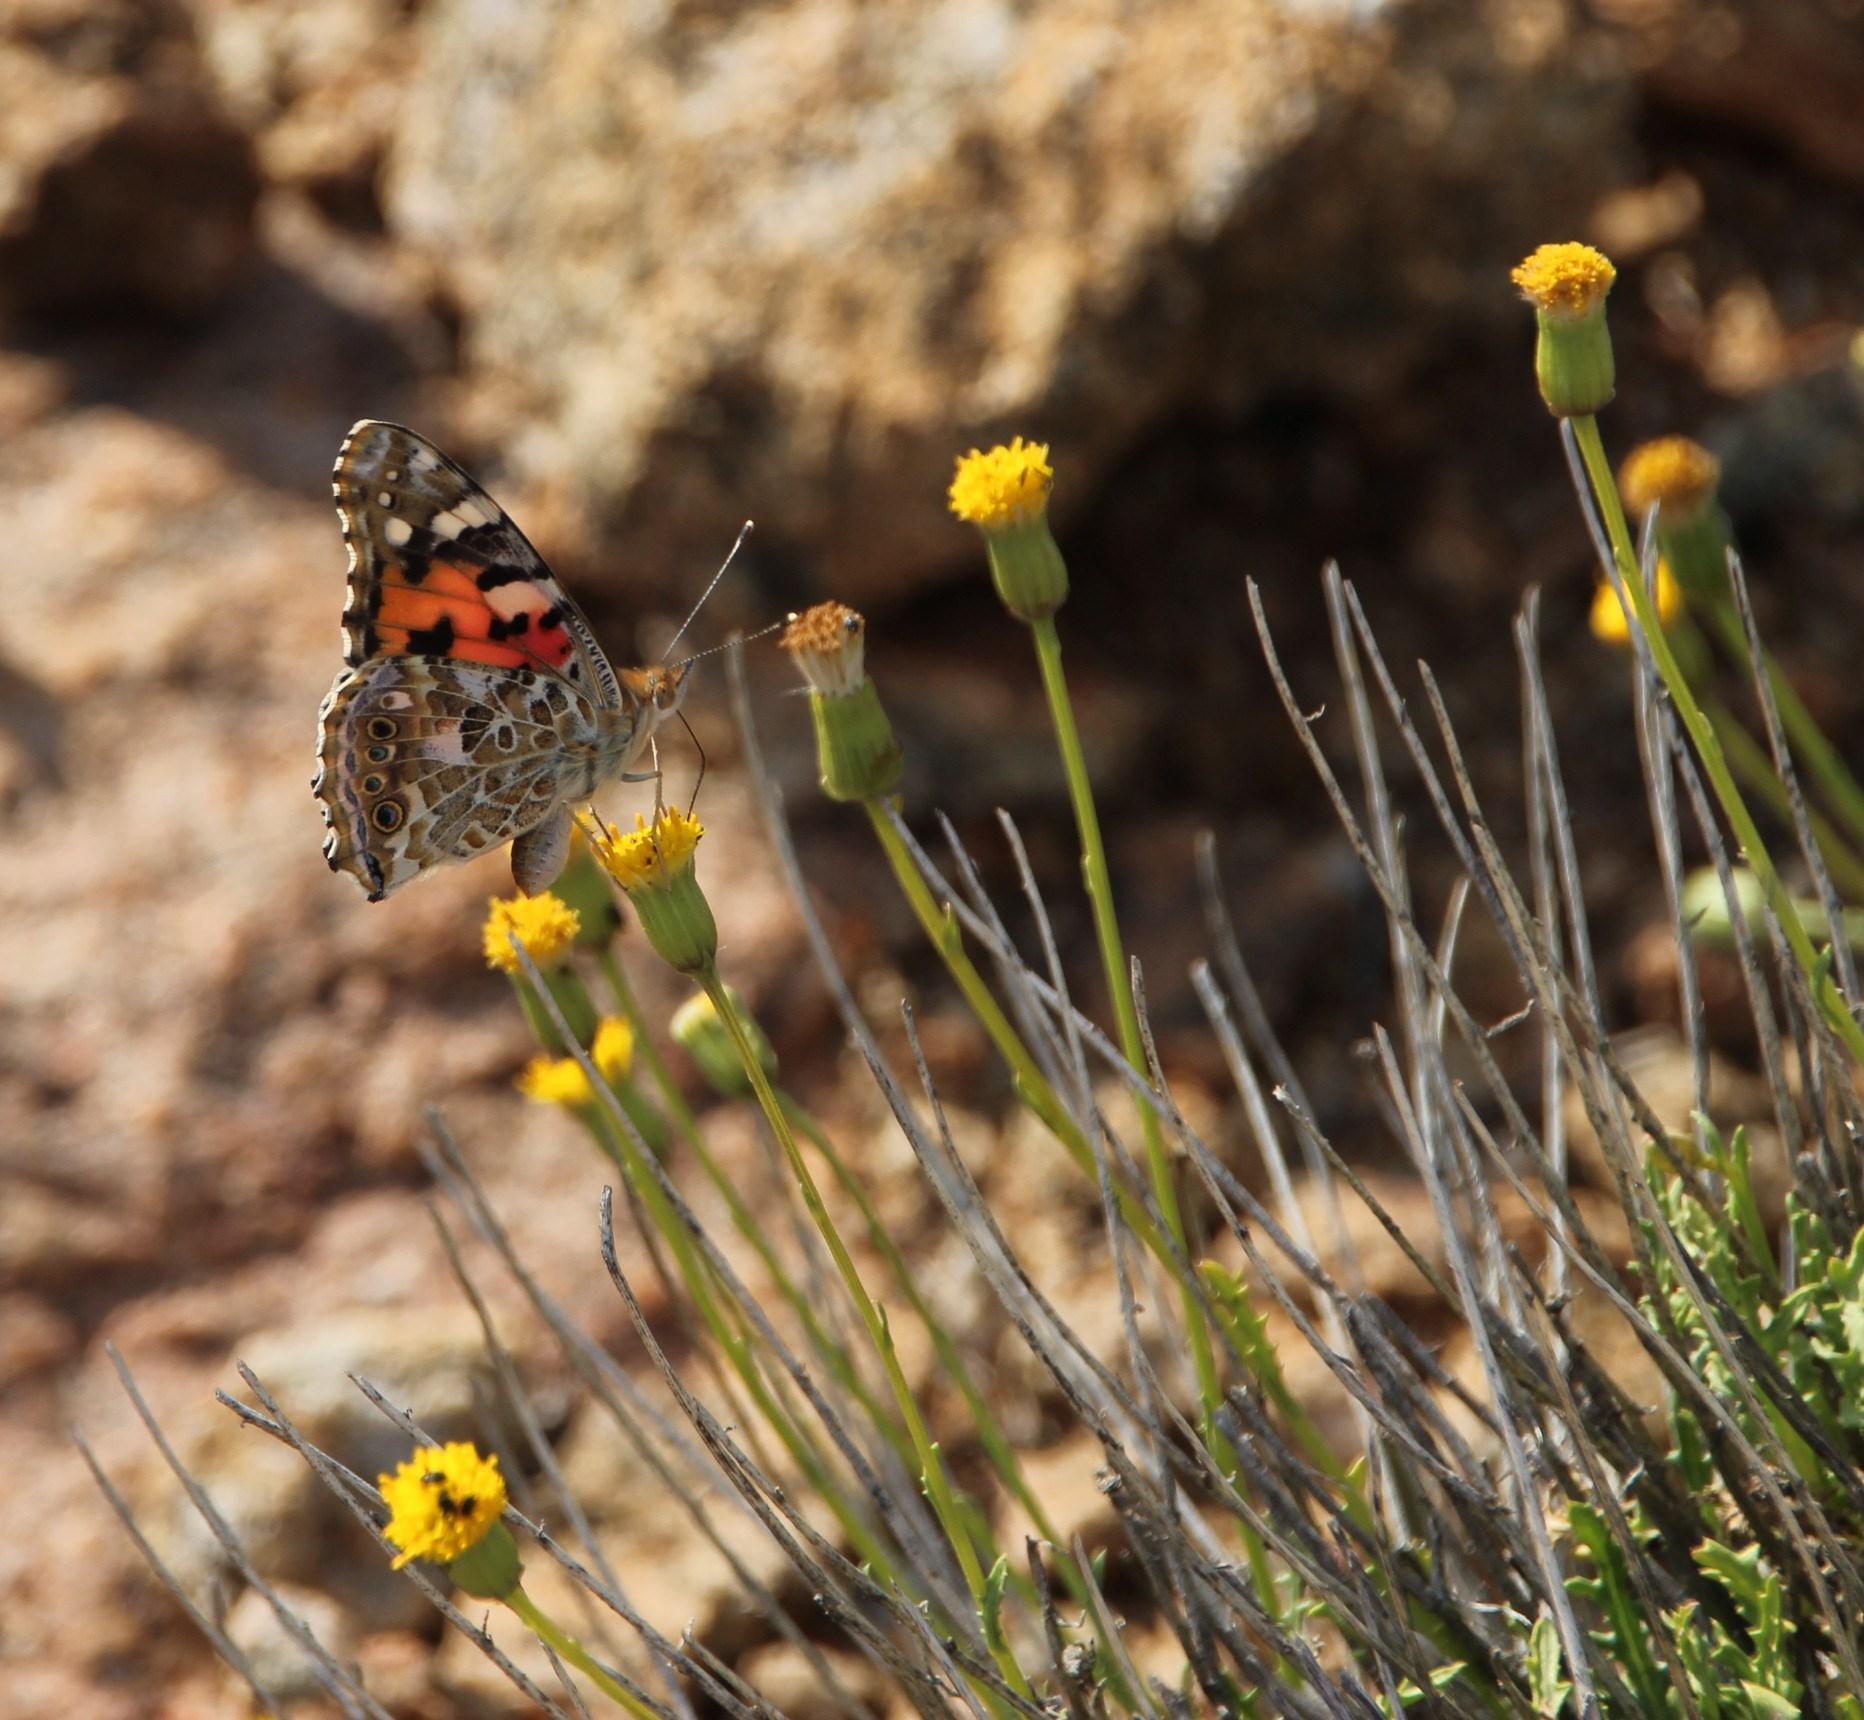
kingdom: Animalia
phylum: Arthropoda
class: Insecta
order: Lepidoptera
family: Nymphalidae
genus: Vanessa
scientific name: Vanessa cardui
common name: Painted lady
